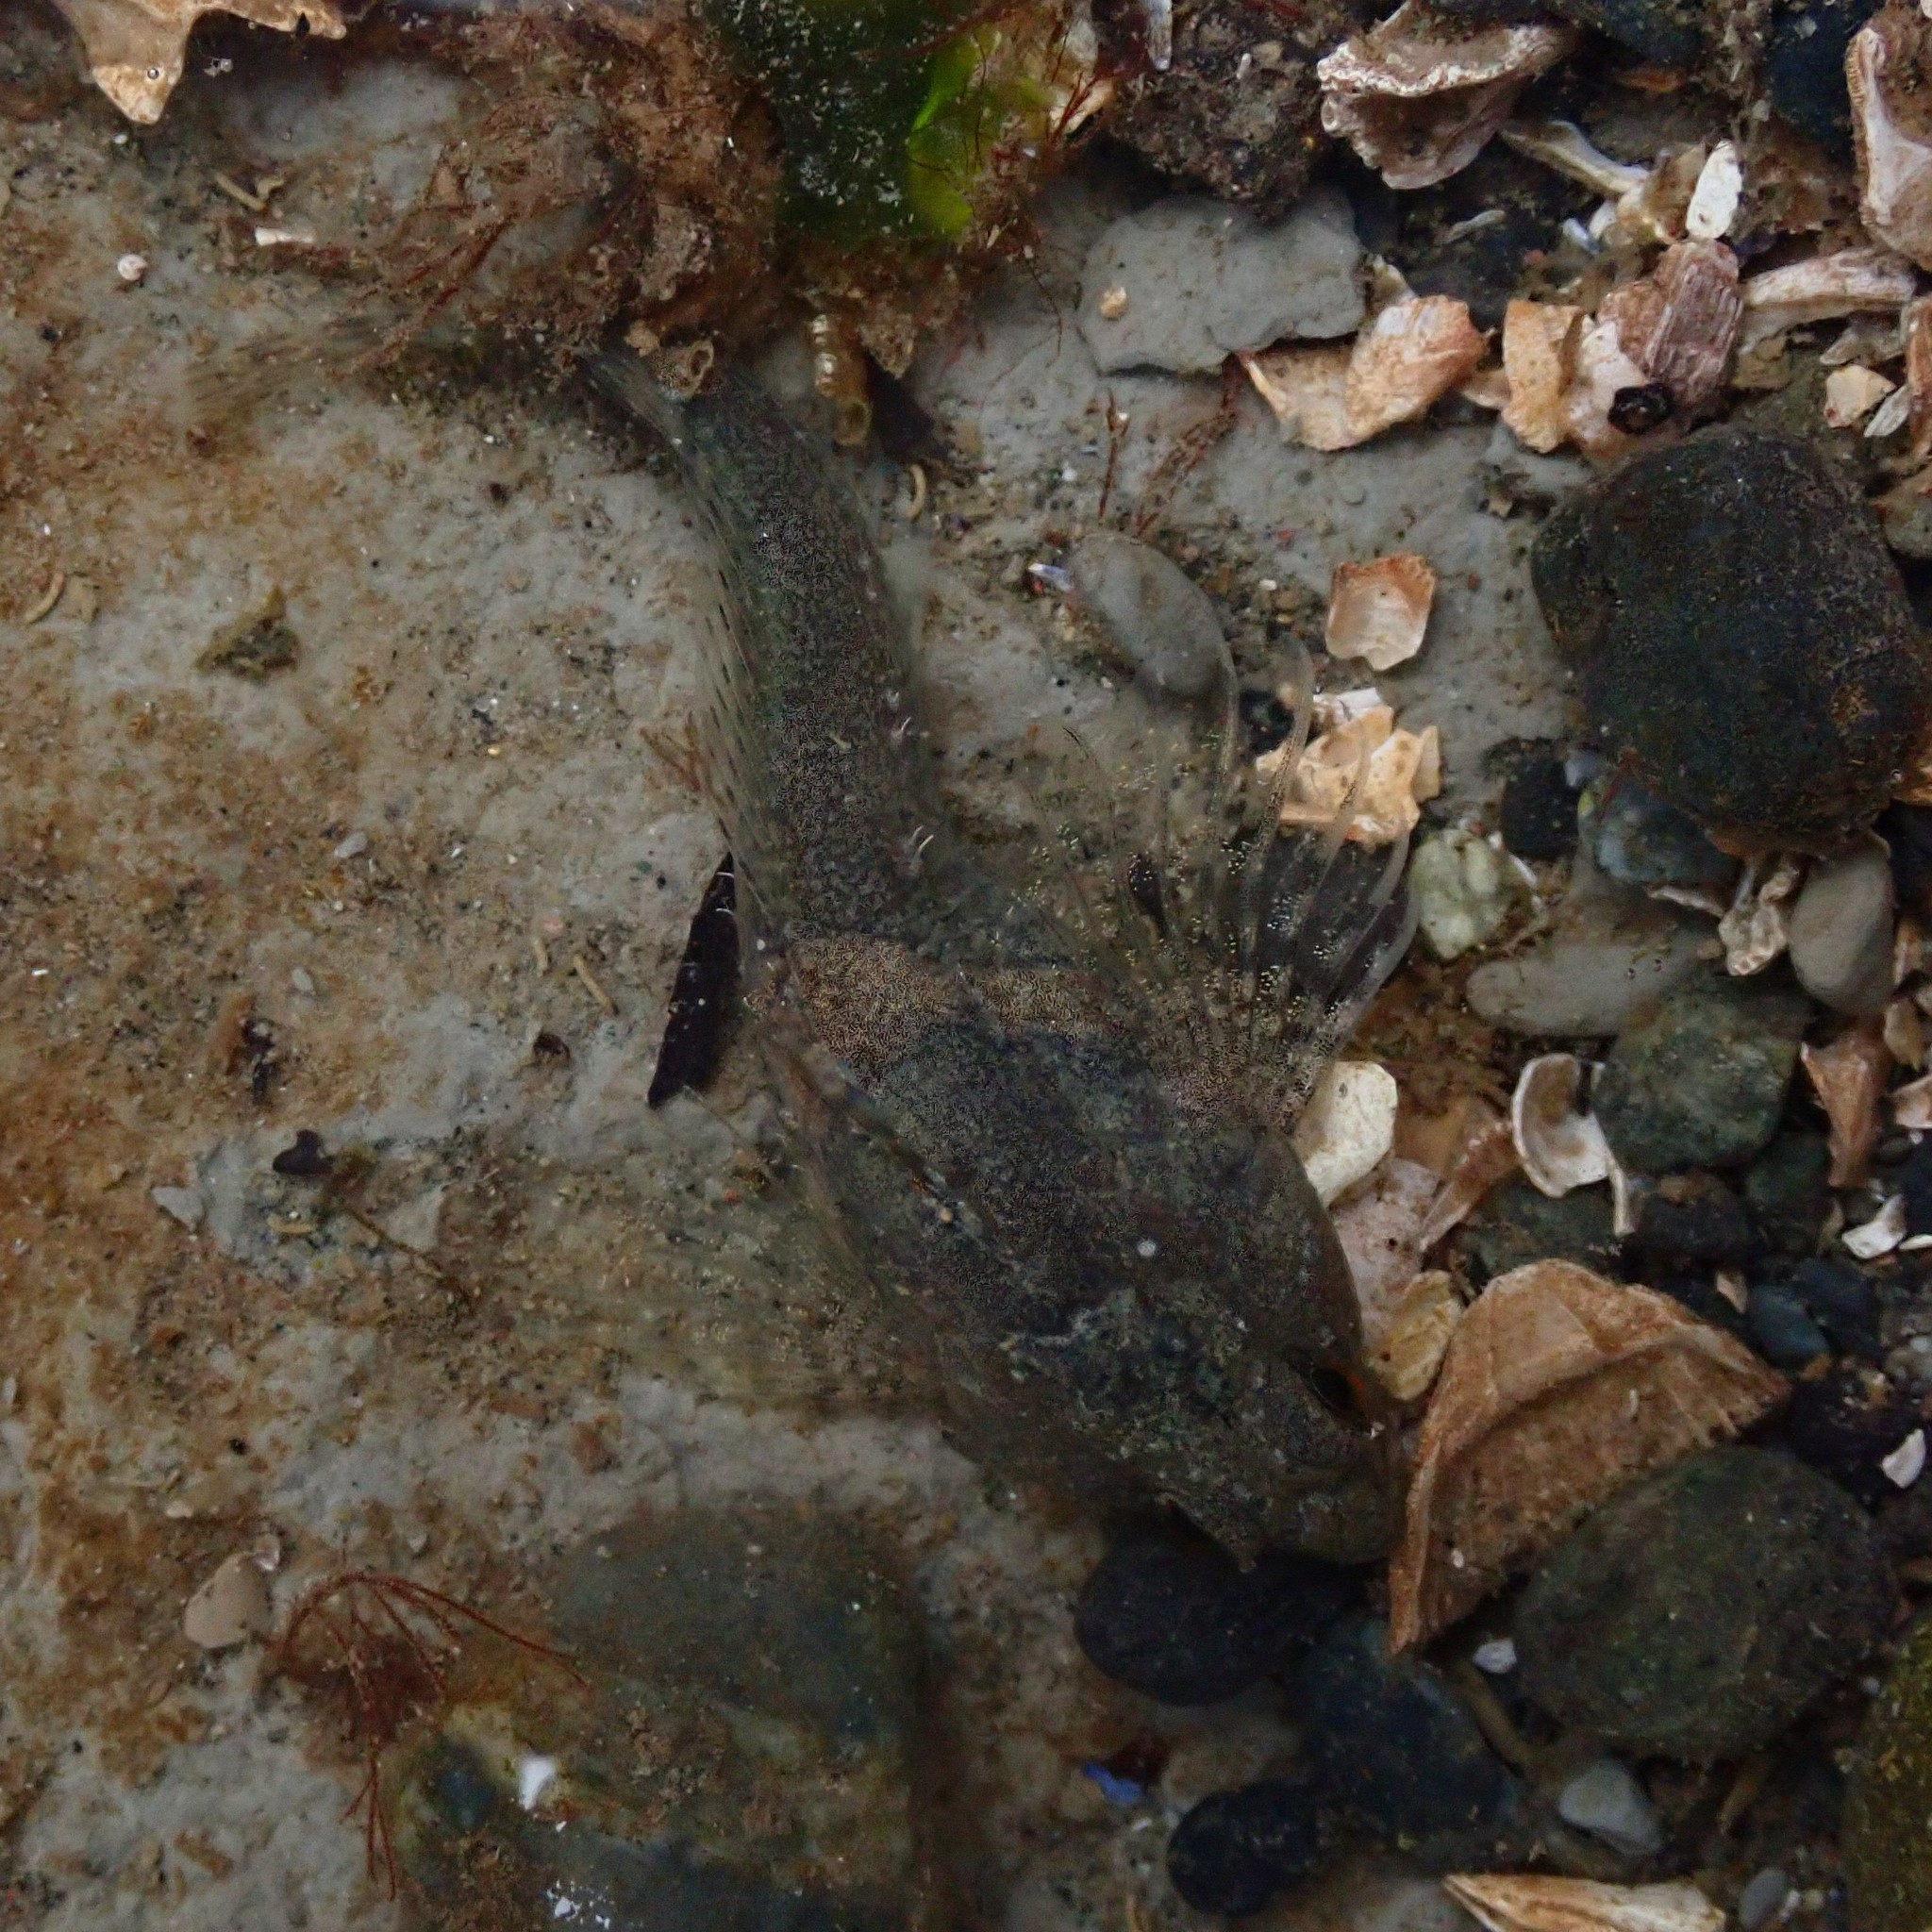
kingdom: Animalia
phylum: Chordata
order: Scorpaeniformes
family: Cottidae
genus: Oligocottus
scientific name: Oligocottus maculosus
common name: Tidepool sculpin
